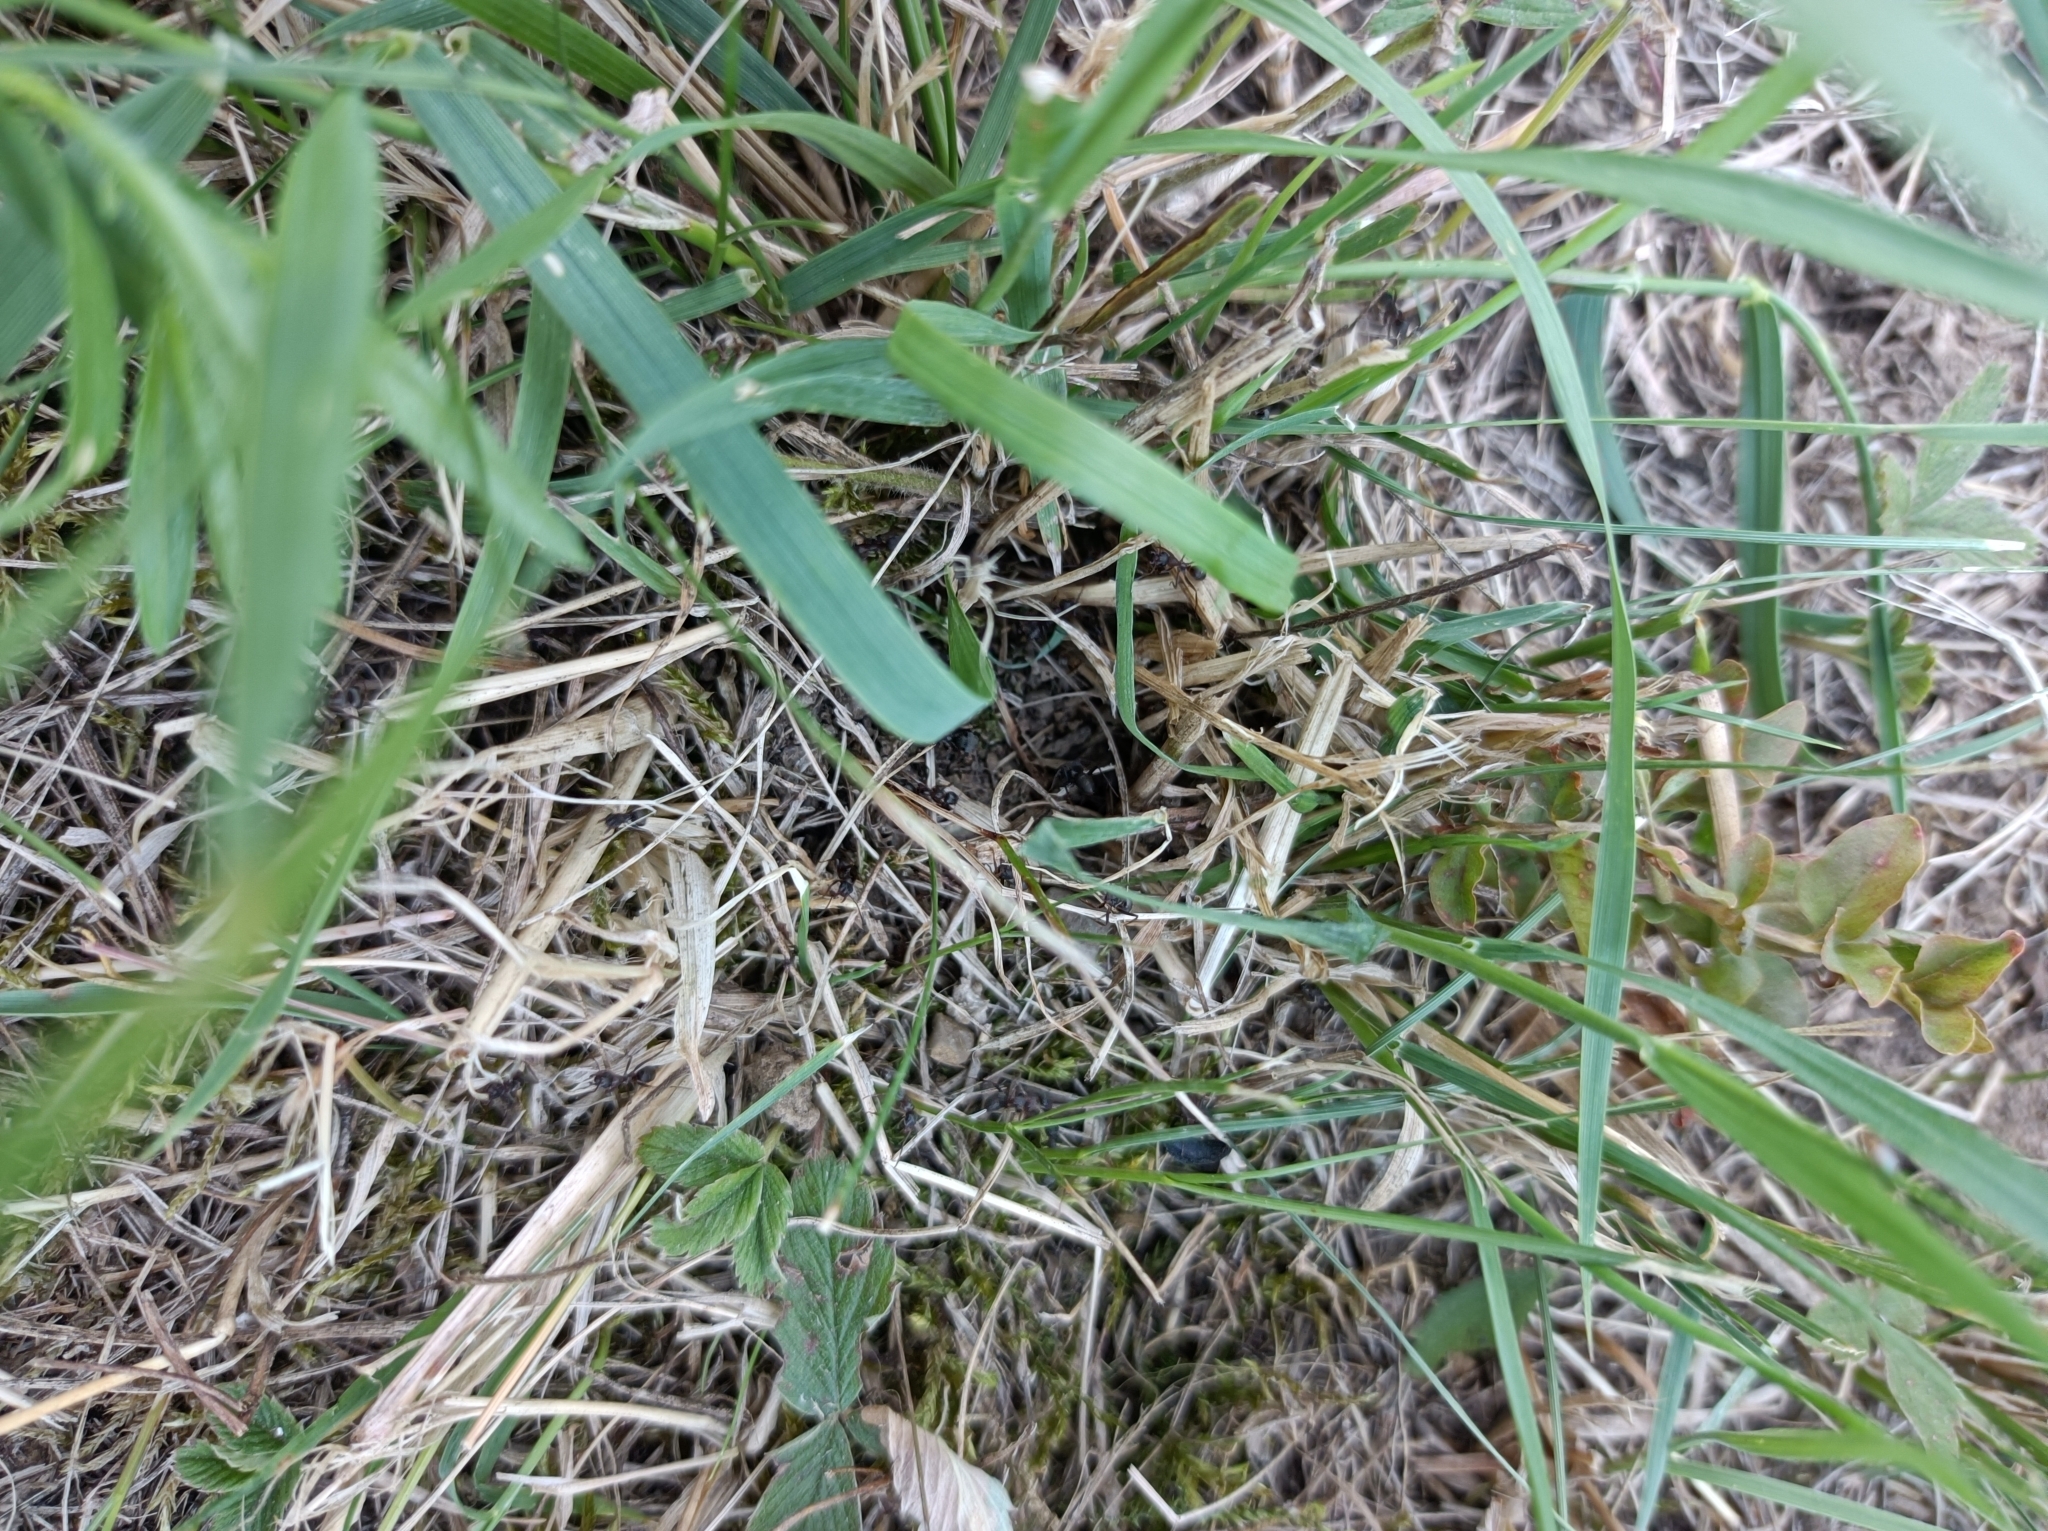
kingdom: Animalia
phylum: Arthropoda
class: Insecta
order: Hymenoptera
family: Formicidae
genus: Polyergus
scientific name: Polyergus rufescens
